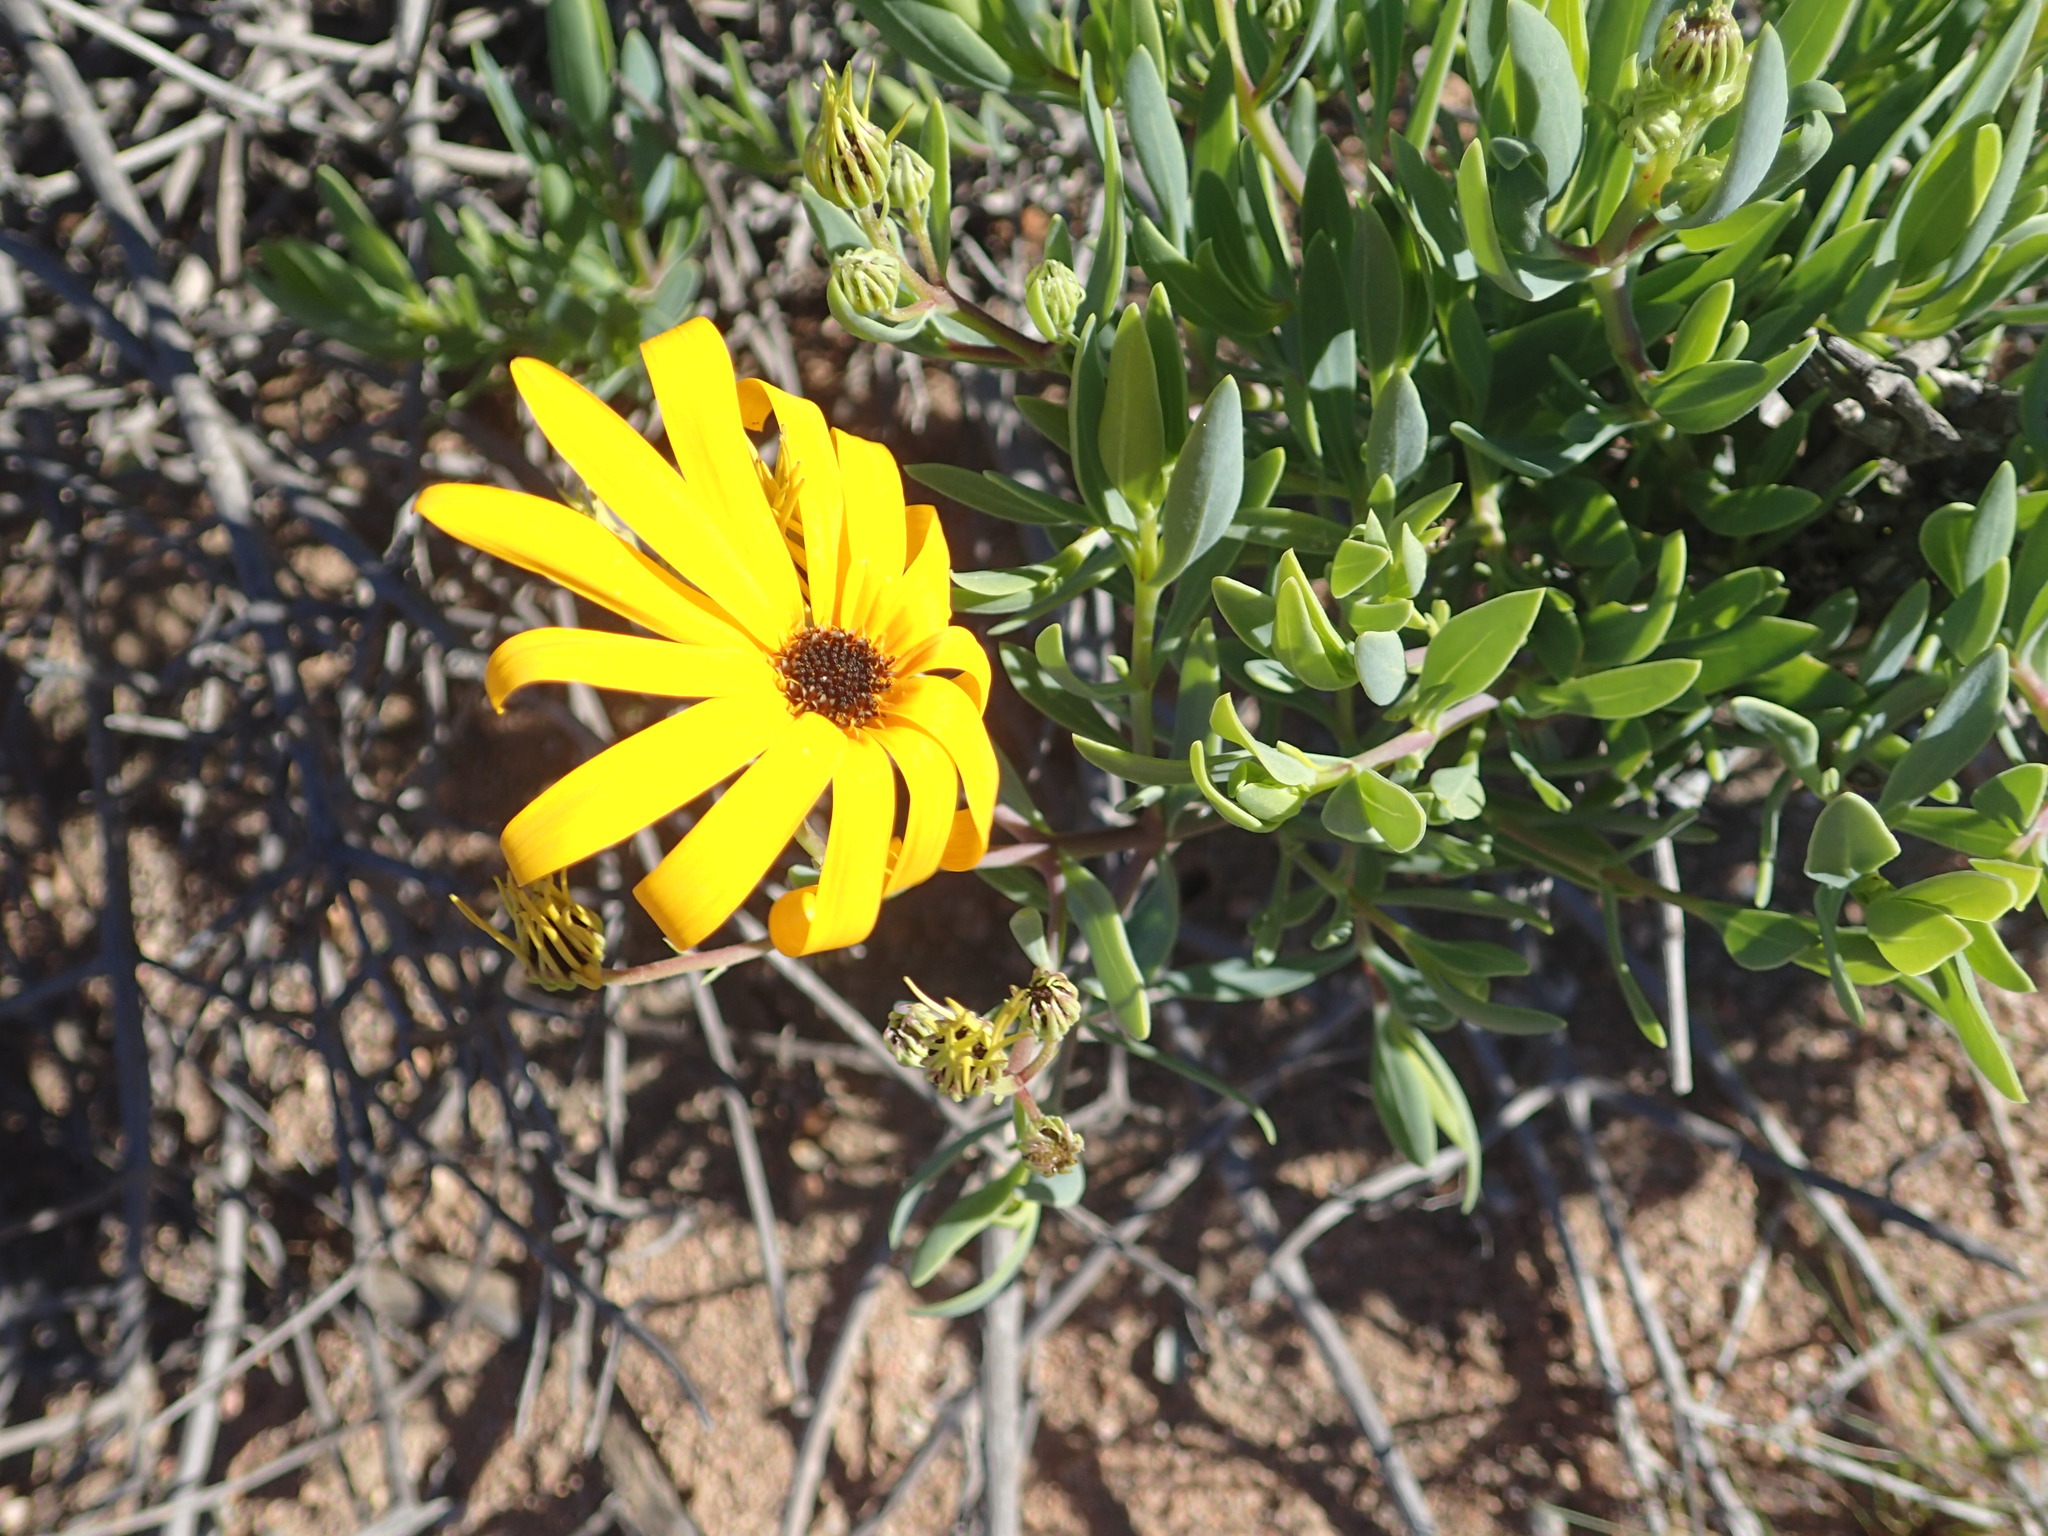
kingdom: Plantae
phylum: Tracheophyta
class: Magnoliopsida
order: Asterales
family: Asteraceae
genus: Osteospermum
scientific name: Osteospermum oppositifolium
